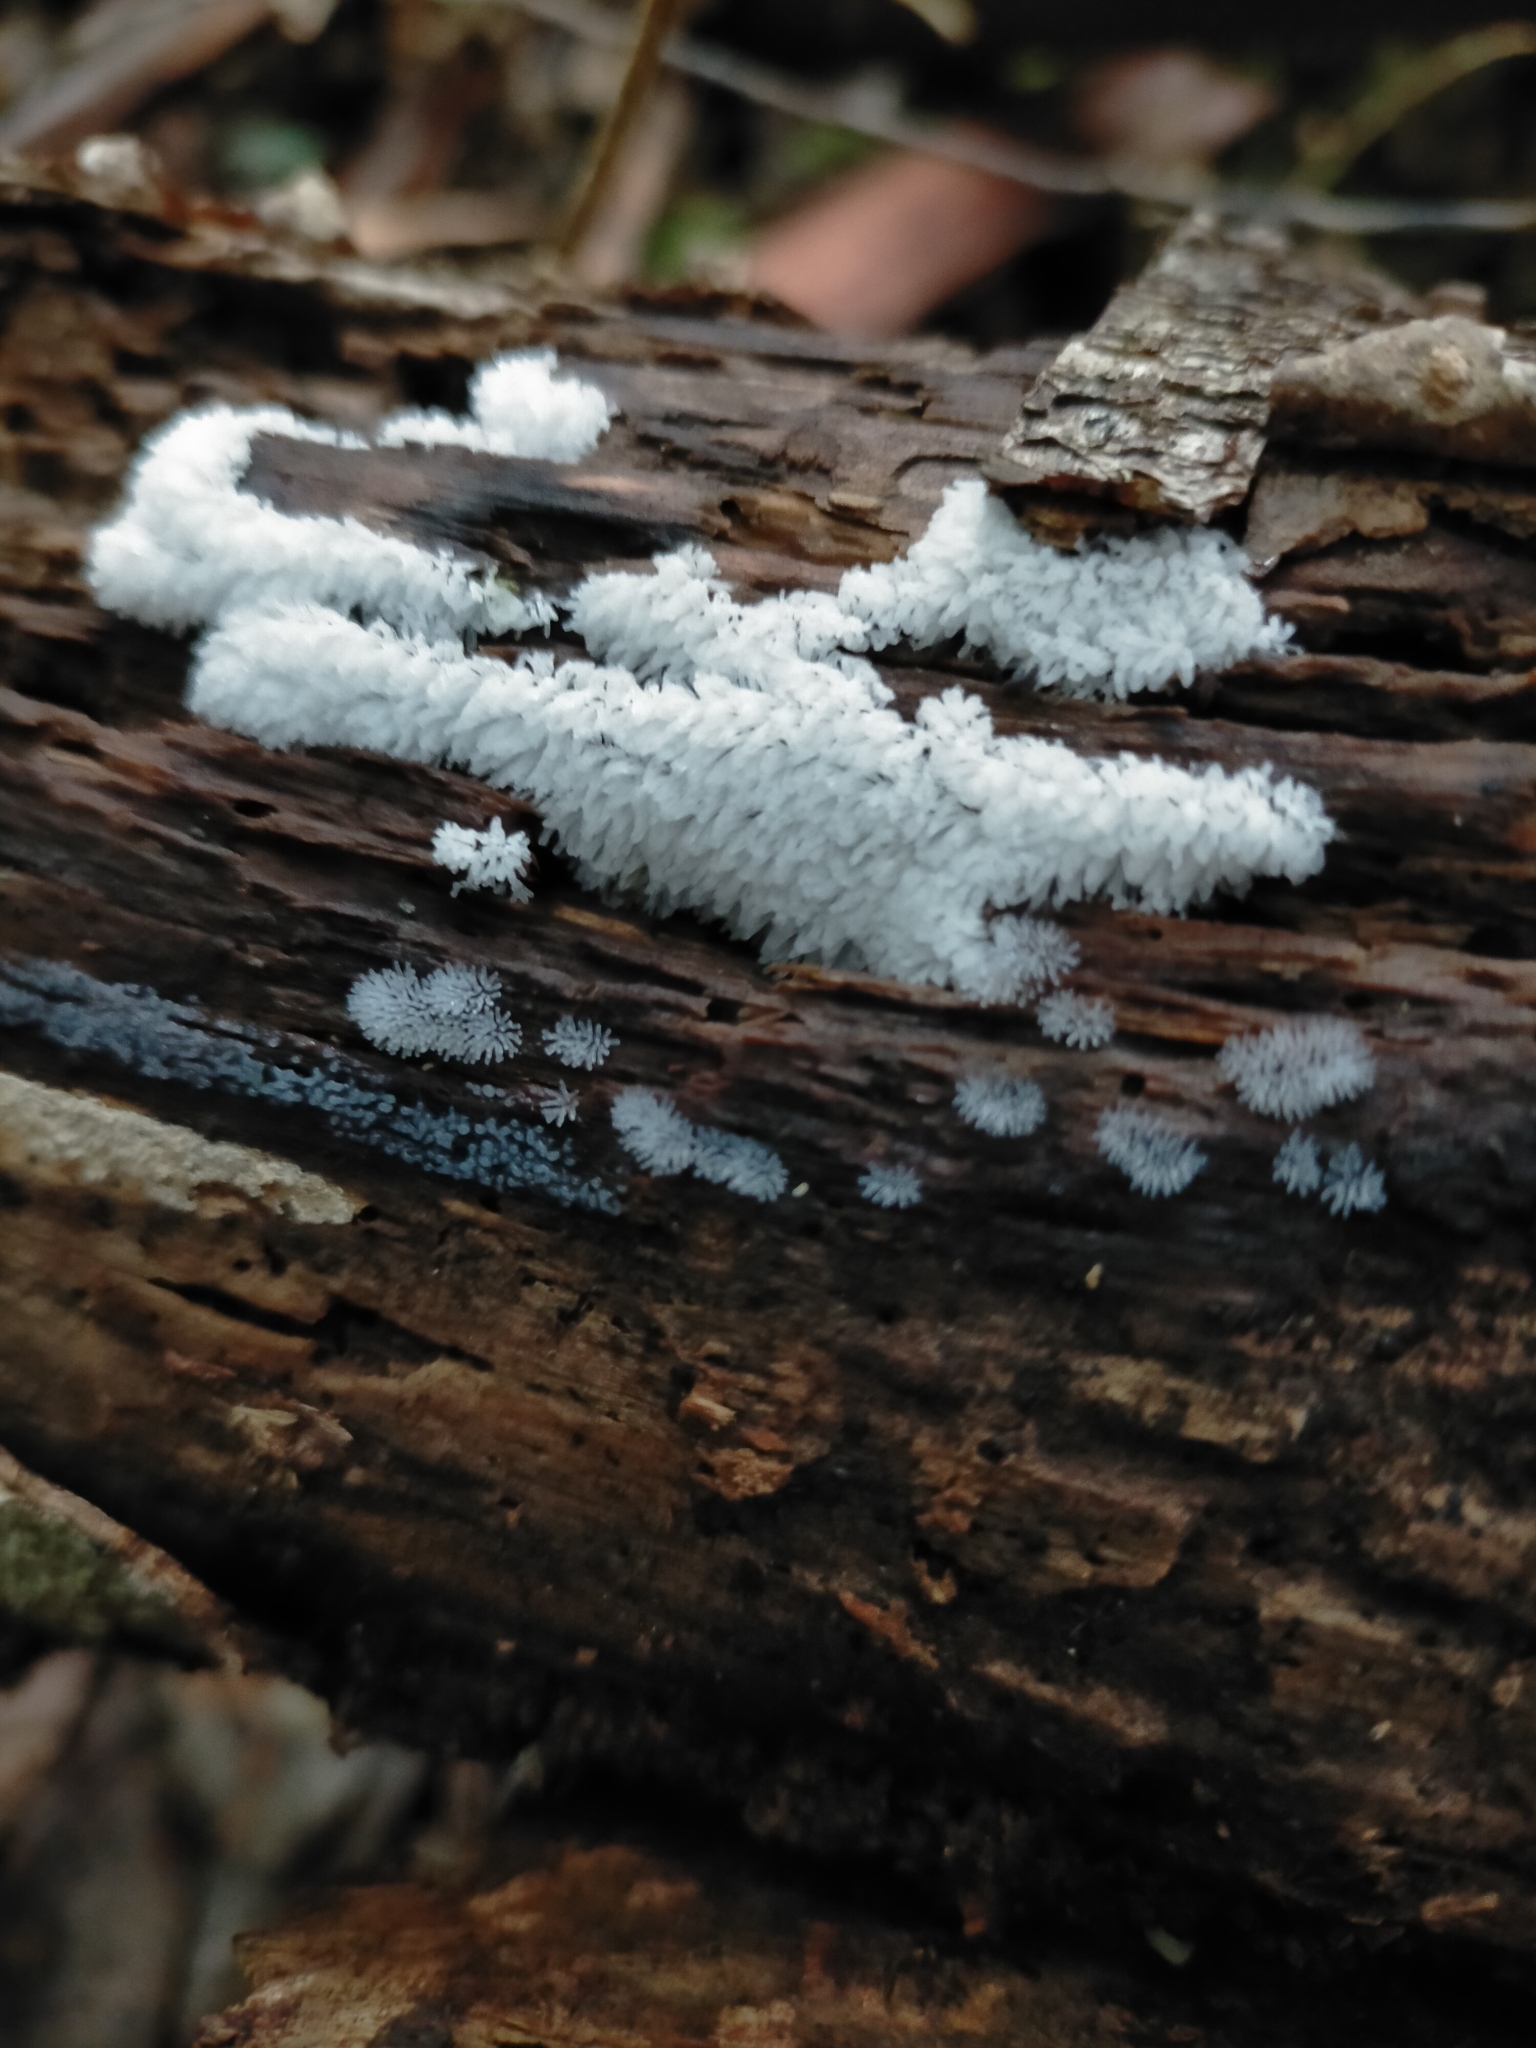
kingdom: Protozoa
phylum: Mycetozoa
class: Protosteliomycetes
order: Ceratiomyxales
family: Ceratiomyxaceae
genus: Ceratiomyxa
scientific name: Ceratiomyxa fruticulosa
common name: Honeycomb coral slime mold
